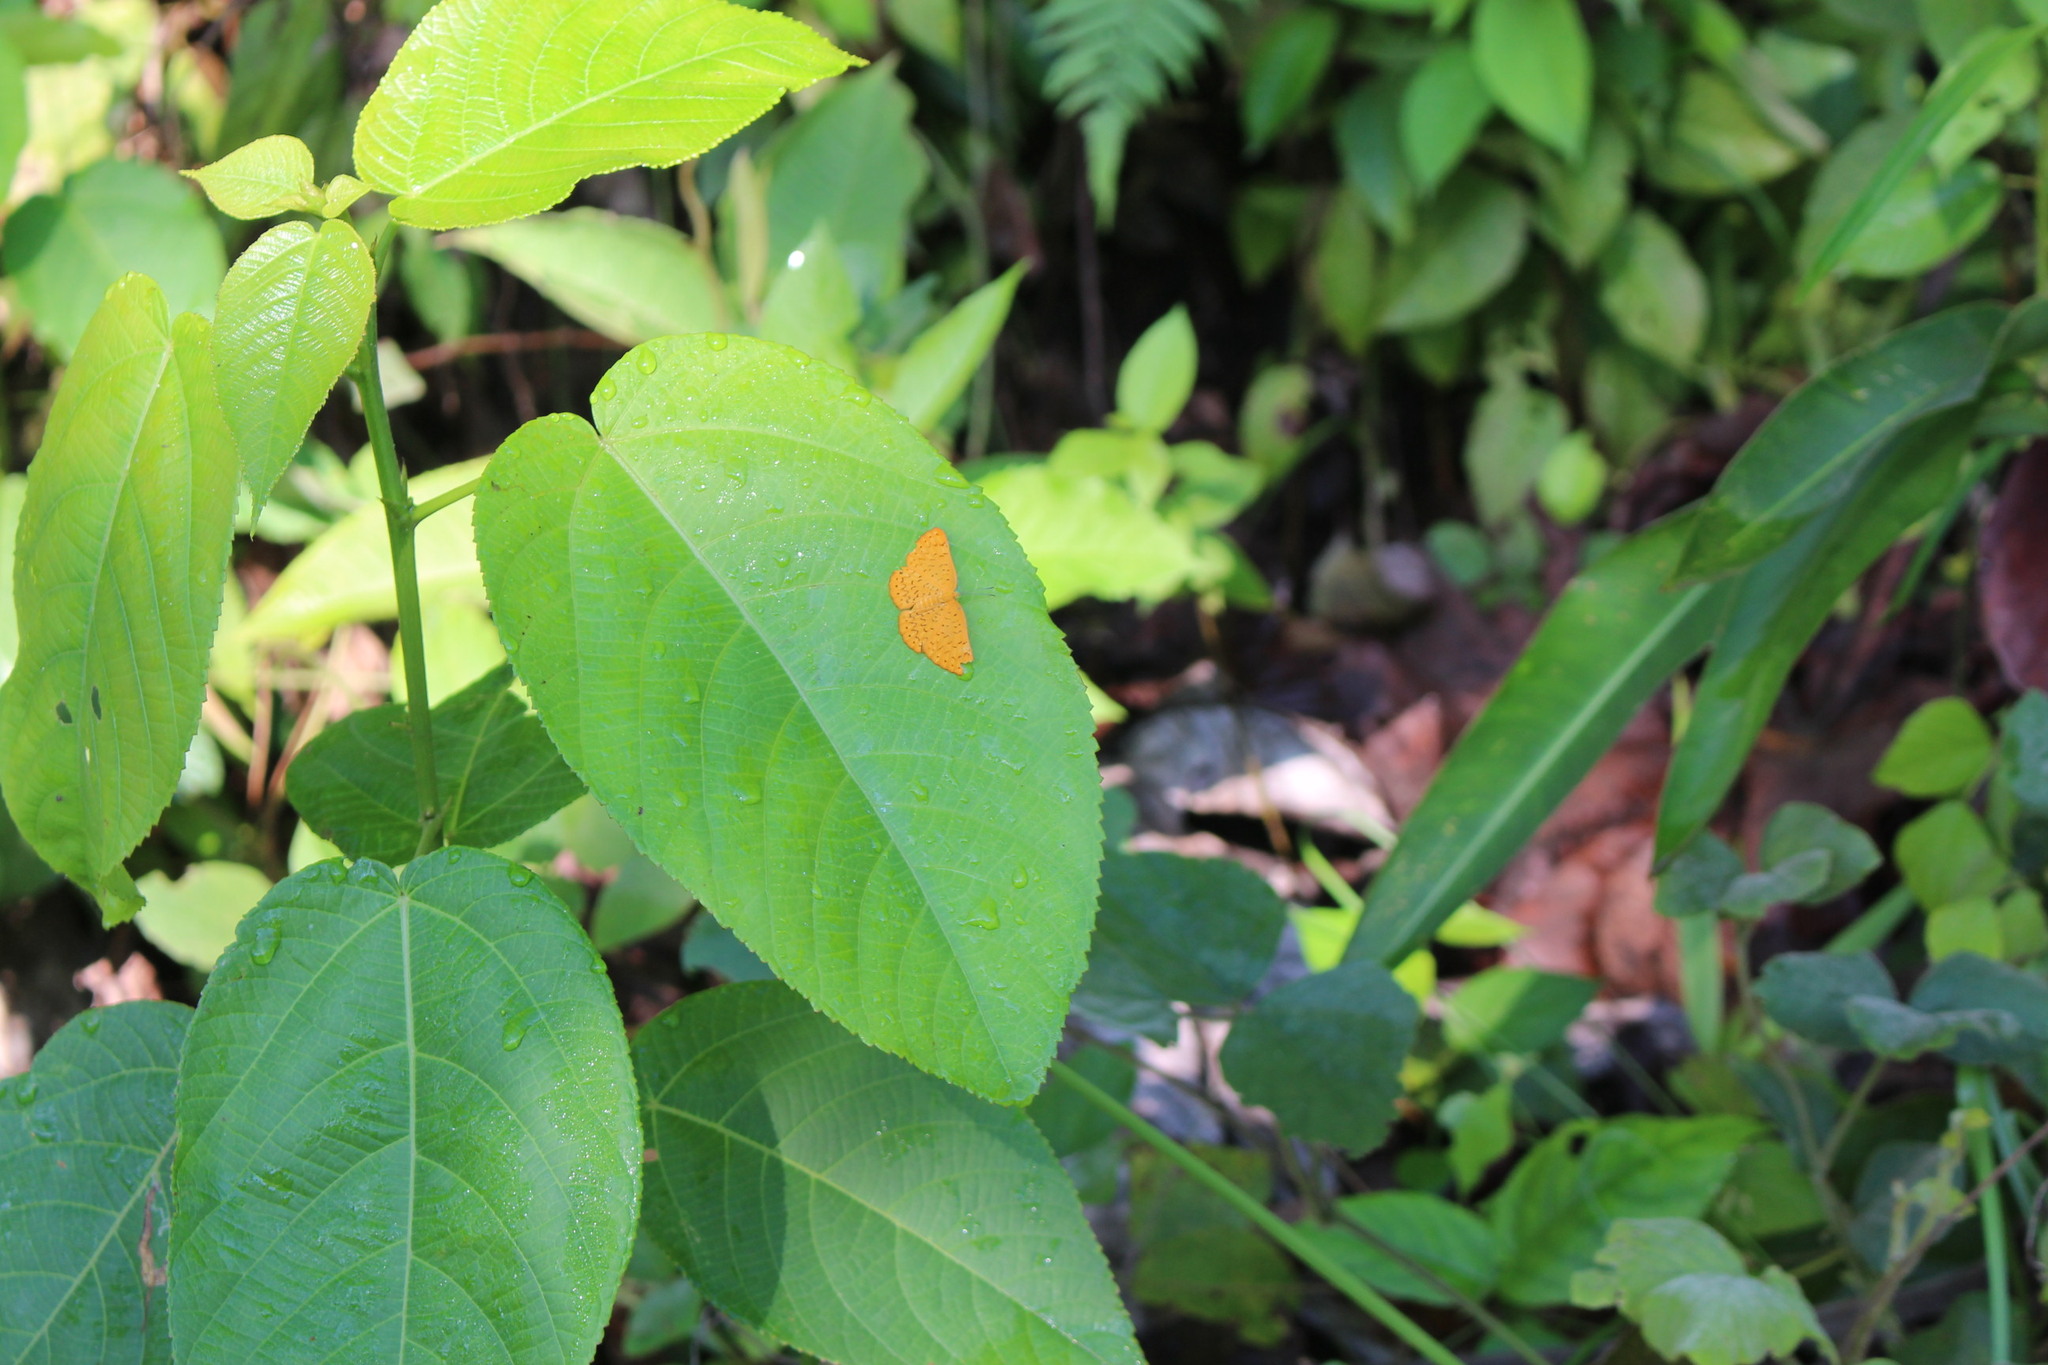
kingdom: Animalia
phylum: Arthropoda
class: Insecta
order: Lepidoptera
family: Lycaenidae
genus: Emesis
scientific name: Emesis fatima
